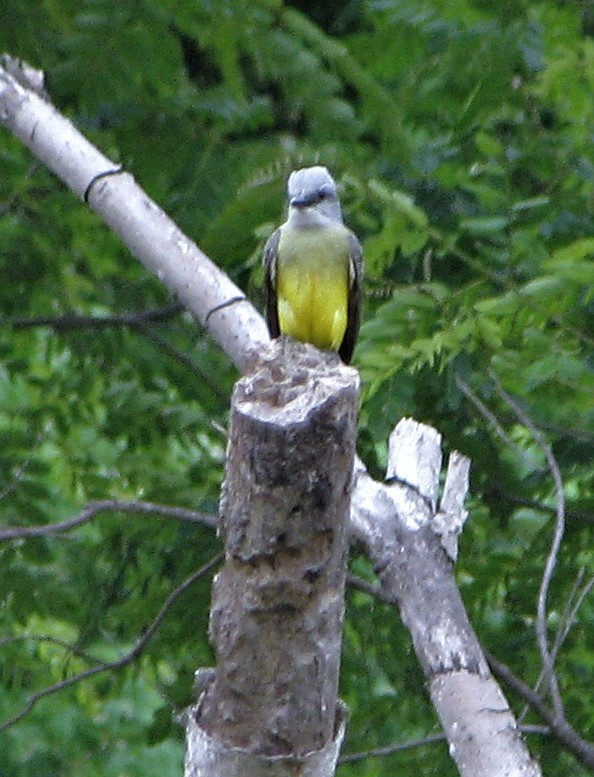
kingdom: Animalia
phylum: Chordata
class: Aves
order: Passeriformes
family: Tyrannidae
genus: Tyrannus
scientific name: Tyrannus melancholicus
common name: Tropical kingbird
